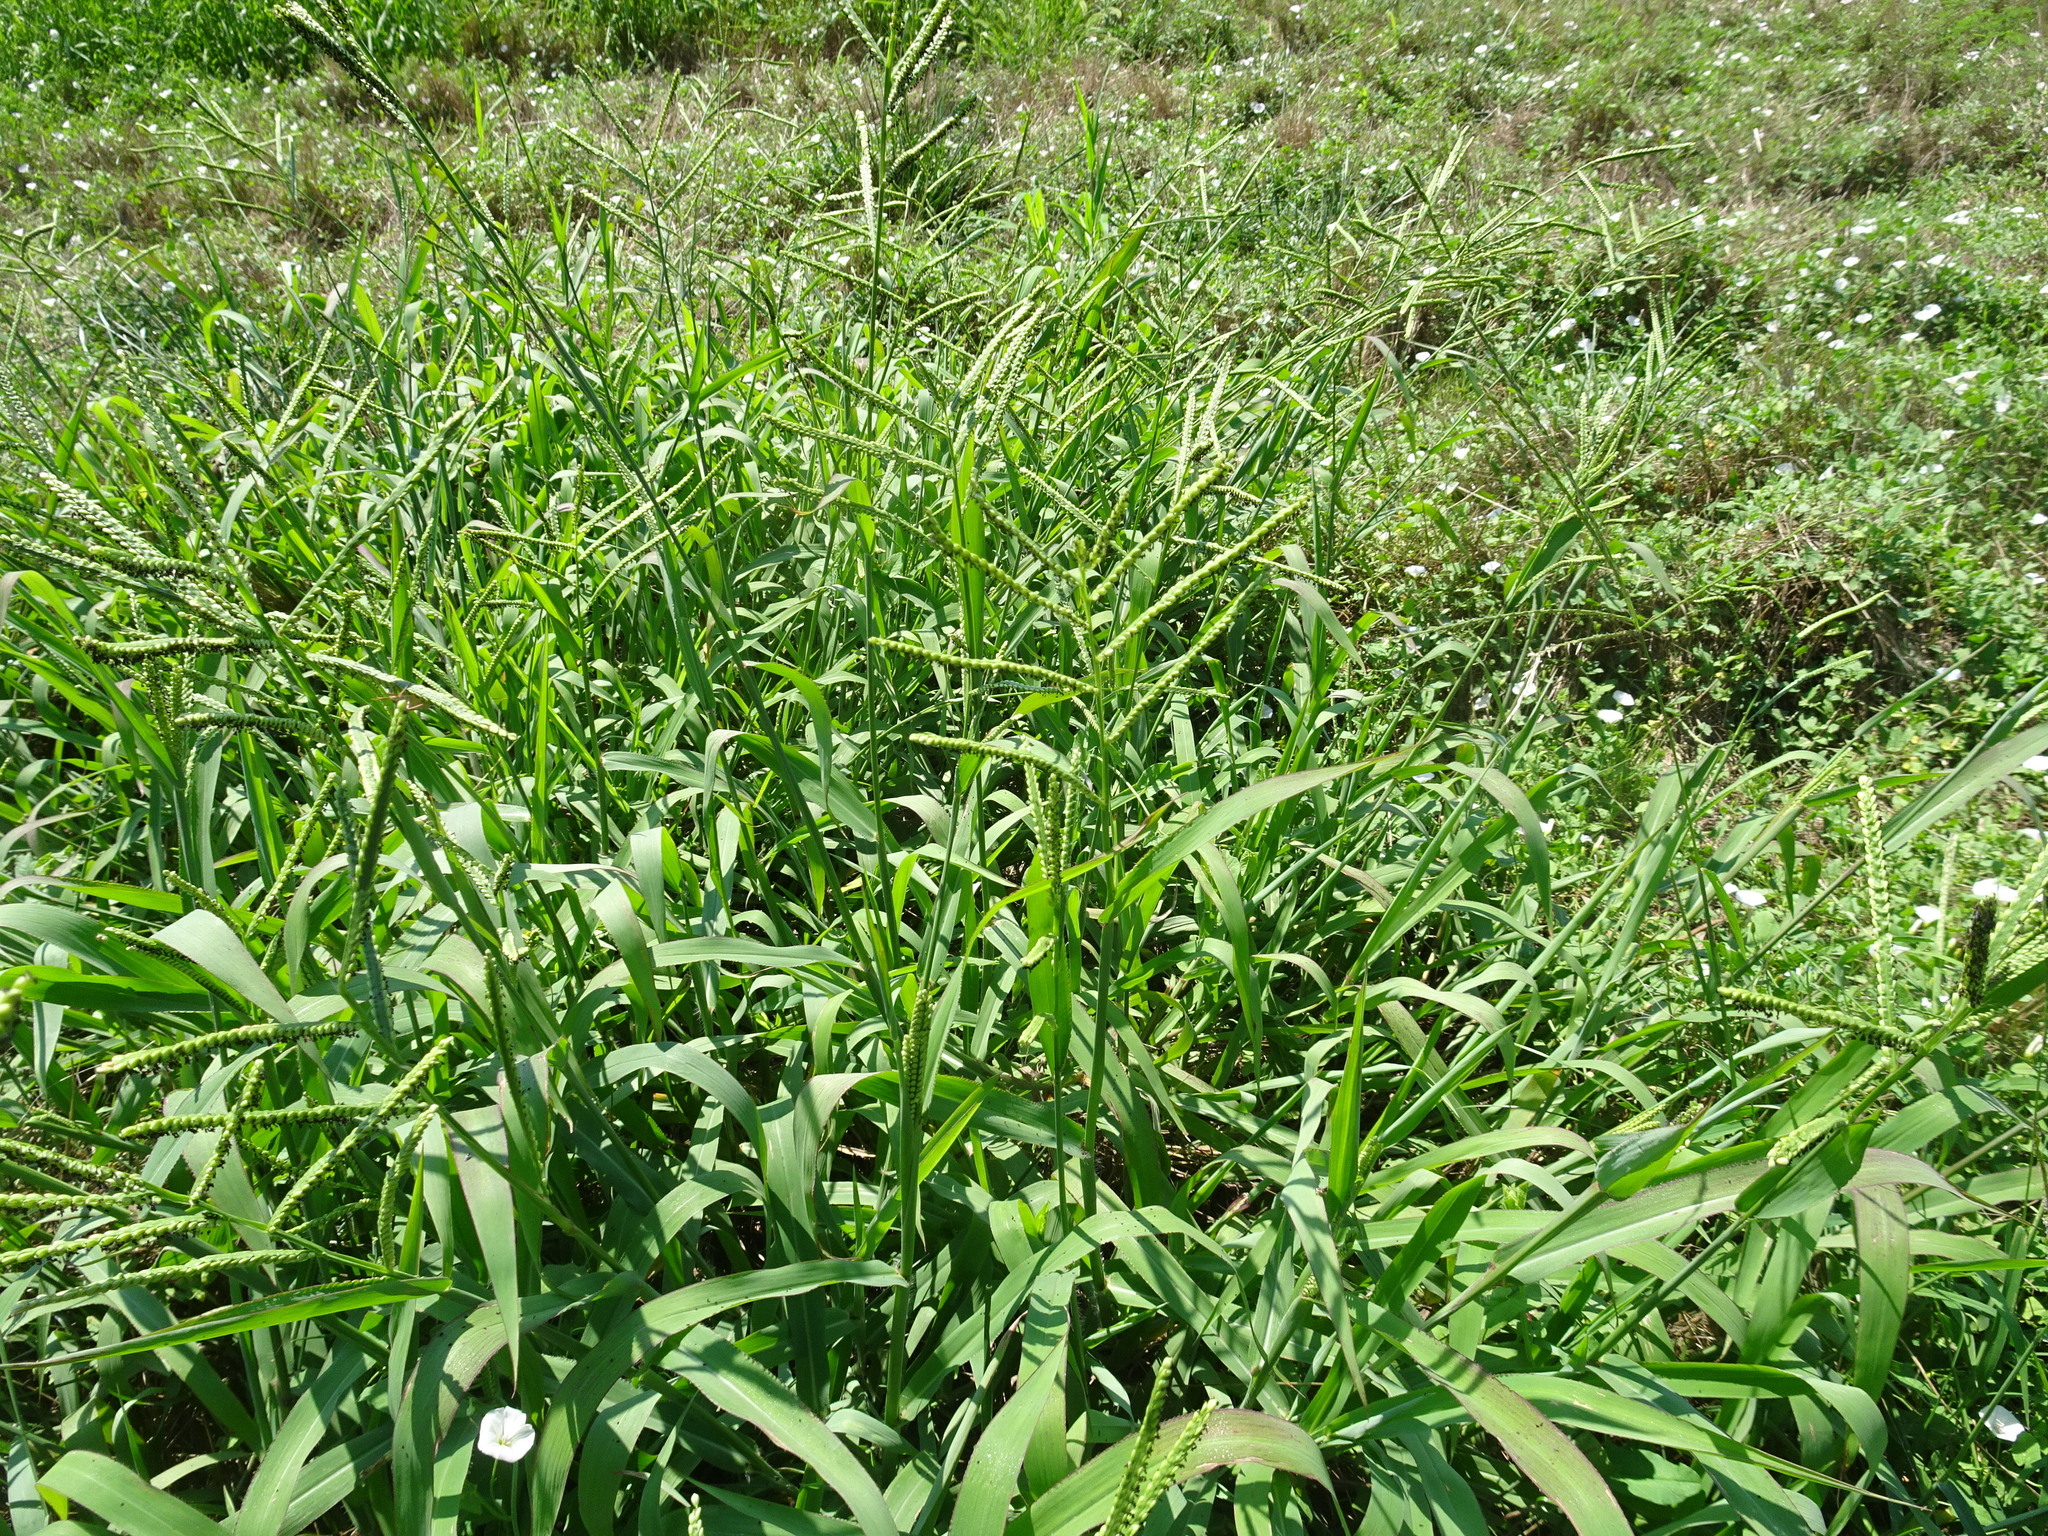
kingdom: Plantae
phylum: Tracheophyta
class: Liliopsida
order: Poales
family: Poaceae
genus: Paspalum
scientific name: Paspalum pubiflorum
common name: Hairy-seed paspalum
